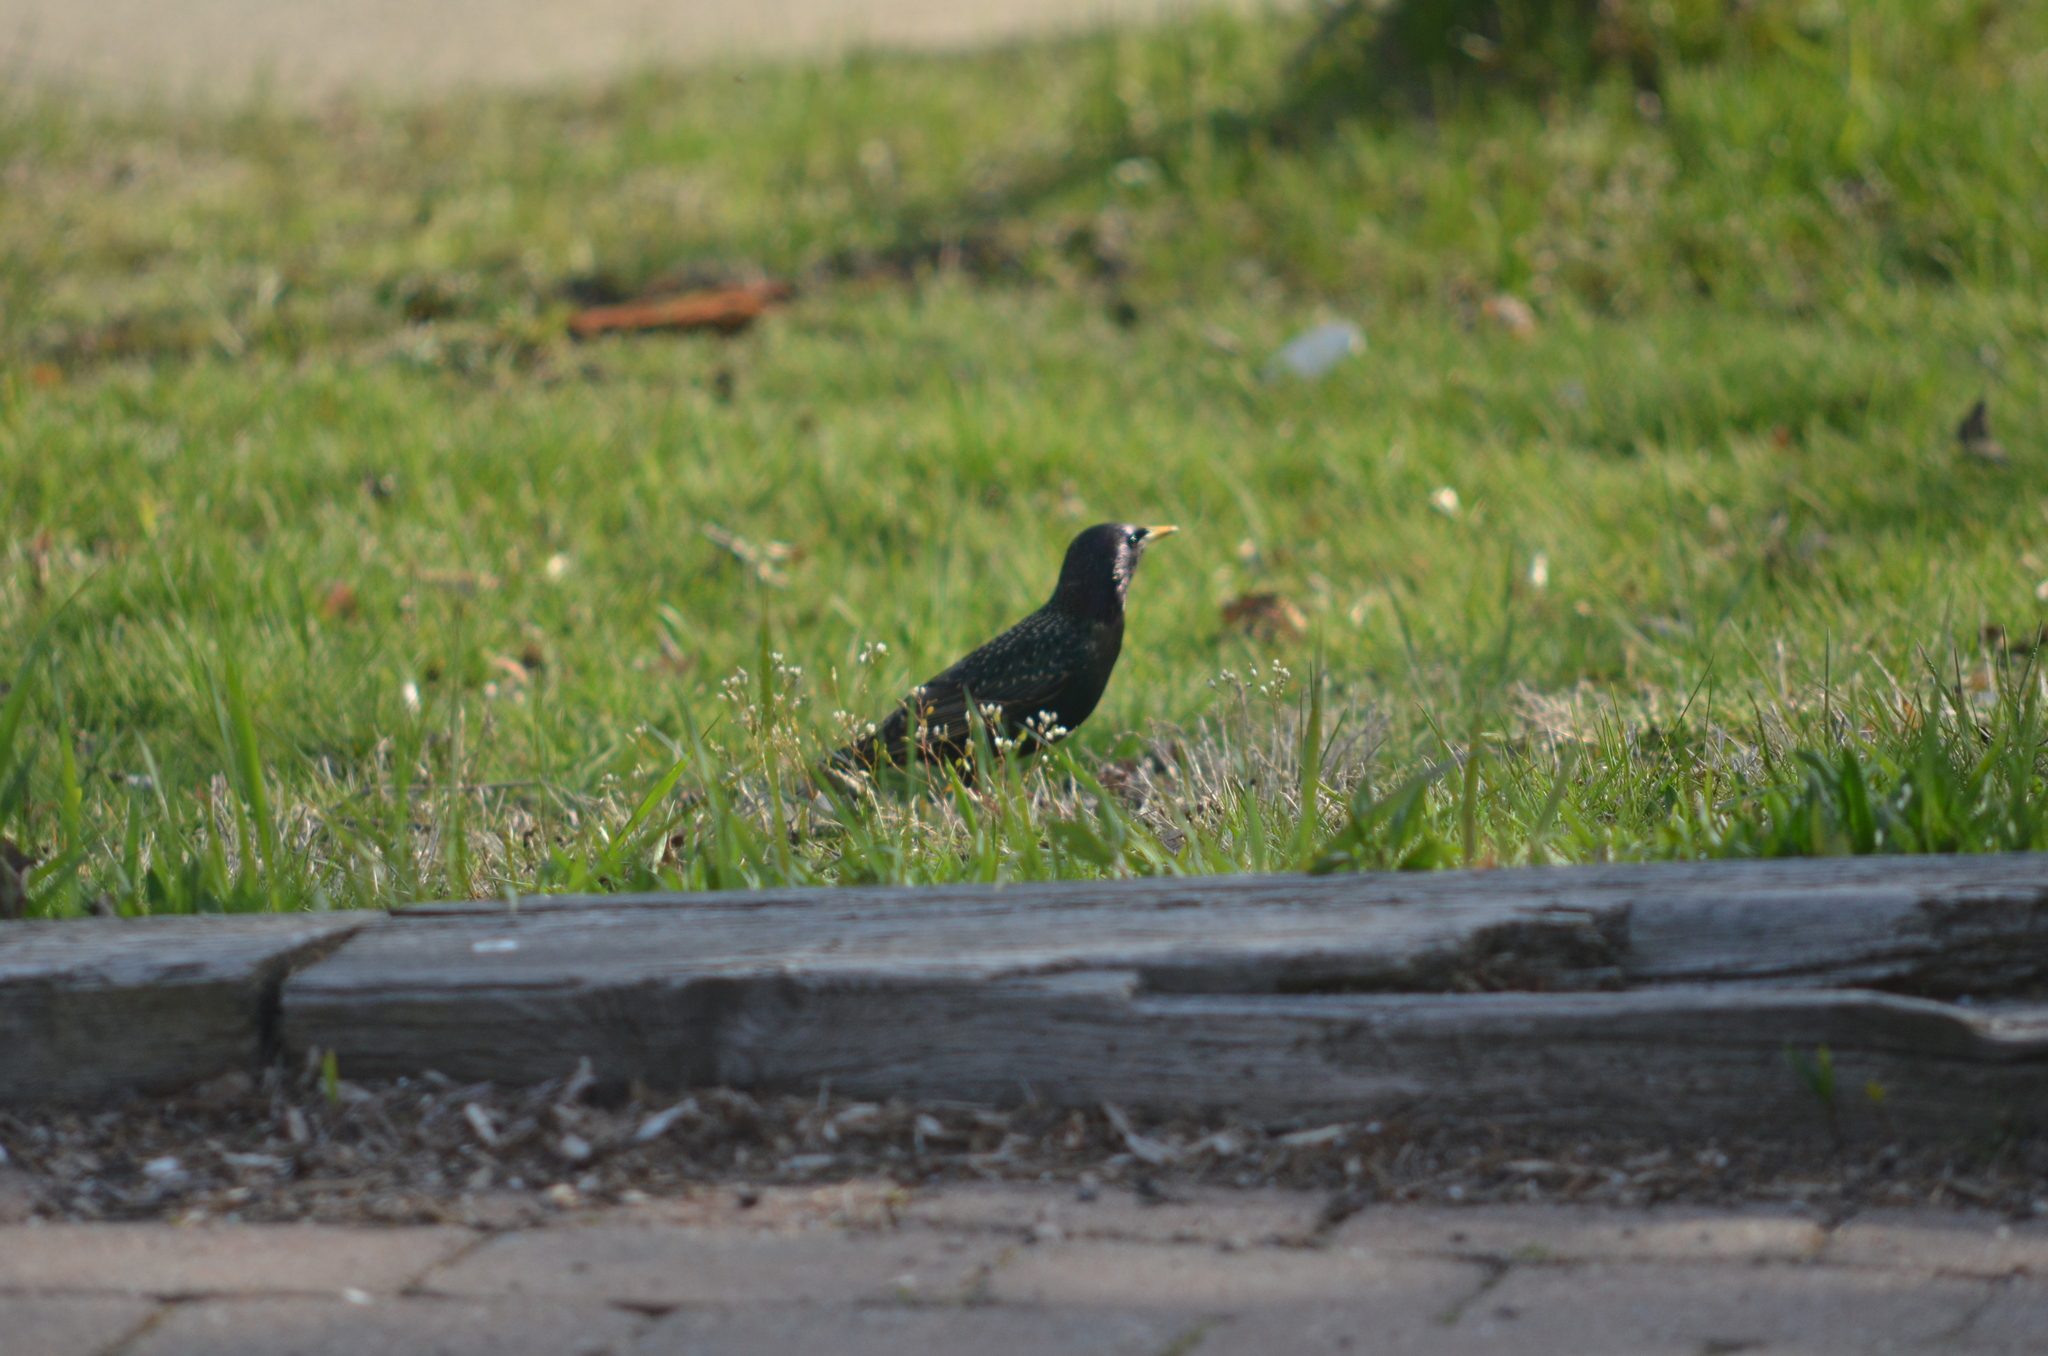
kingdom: Animalia
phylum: Chordata
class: Aves
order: Passeriformes
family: Sturnidae
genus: Sturnus
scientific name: Sturnus vulgaris
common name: Common starling
